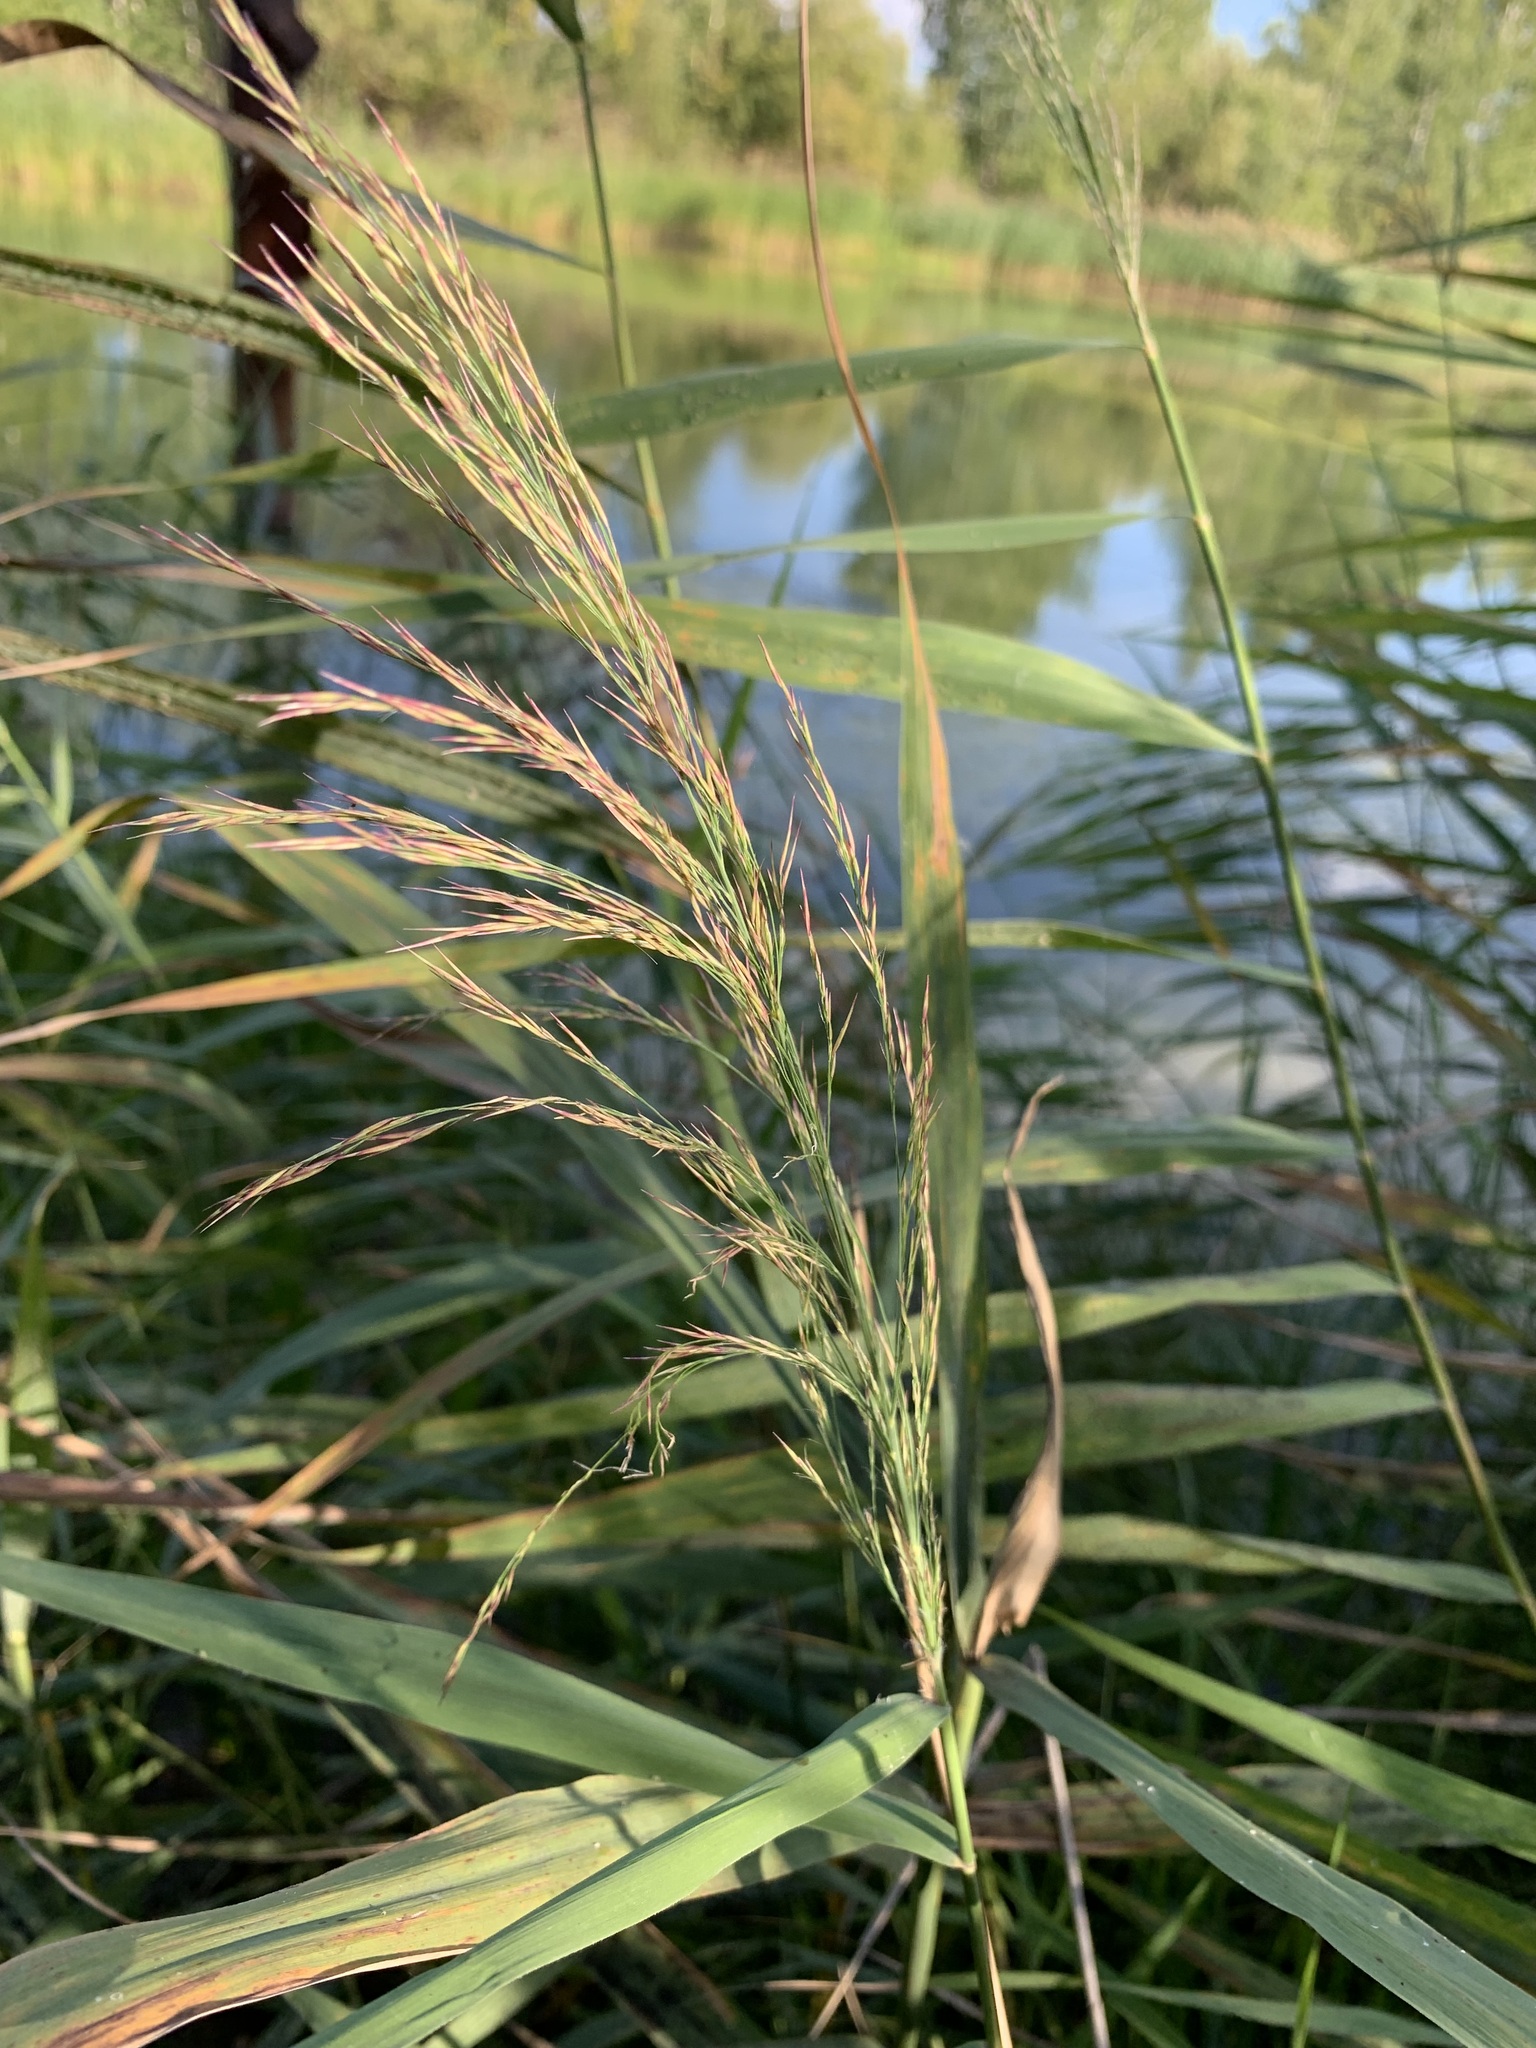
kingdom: Plantae
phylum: Tracheophyta
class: Liliopsida
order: Poales
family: Poaceae
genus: Phragmites
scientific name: Phragmites australis
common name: Common reed
